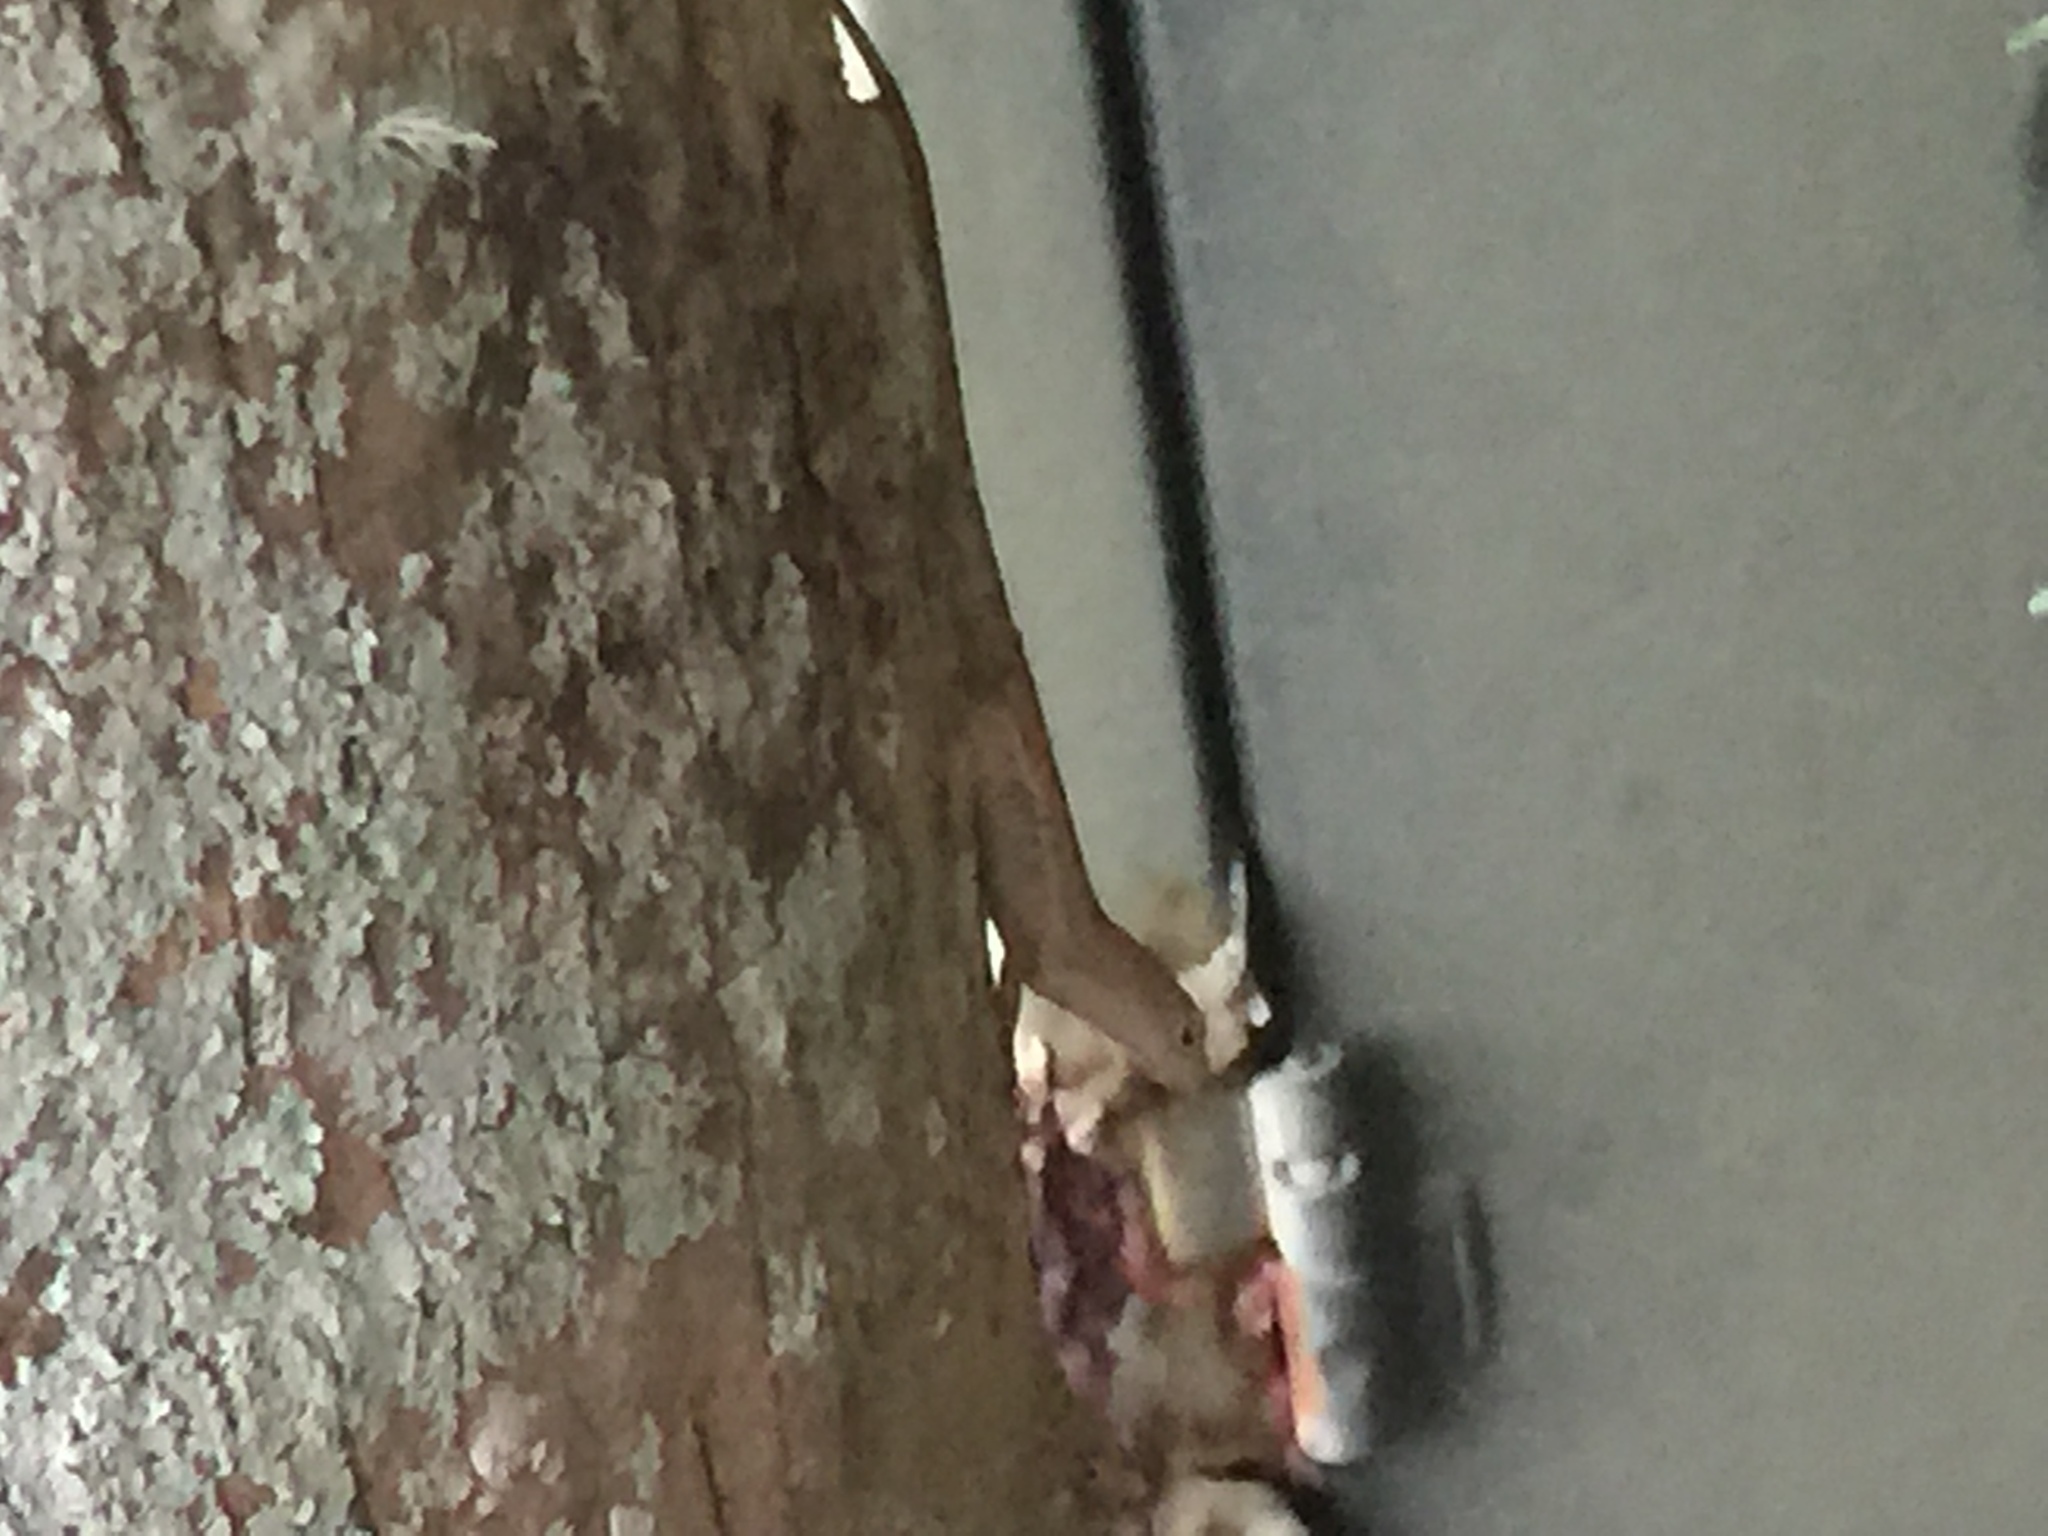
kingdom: Animalia
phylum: Chordata
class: Squamata
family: Dactyloidae
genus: Anolis
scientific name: Anolis sagrei
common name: Brown anole
